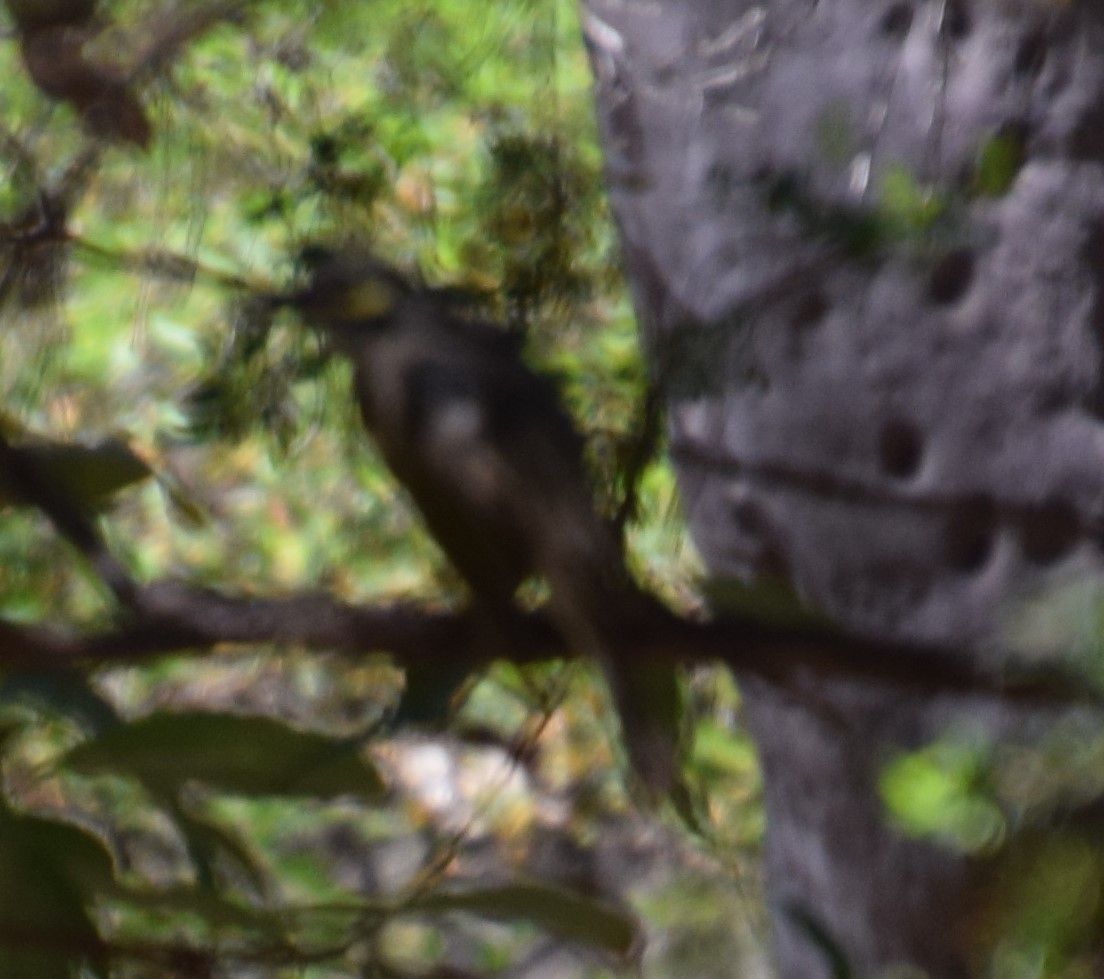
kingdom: Animalia
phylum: Chordata
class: Aves
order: Passeriformes
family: Meliphagidae
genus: Caligavis
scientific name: Caligavis chrysops
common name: Yellow-faced honeyeater
